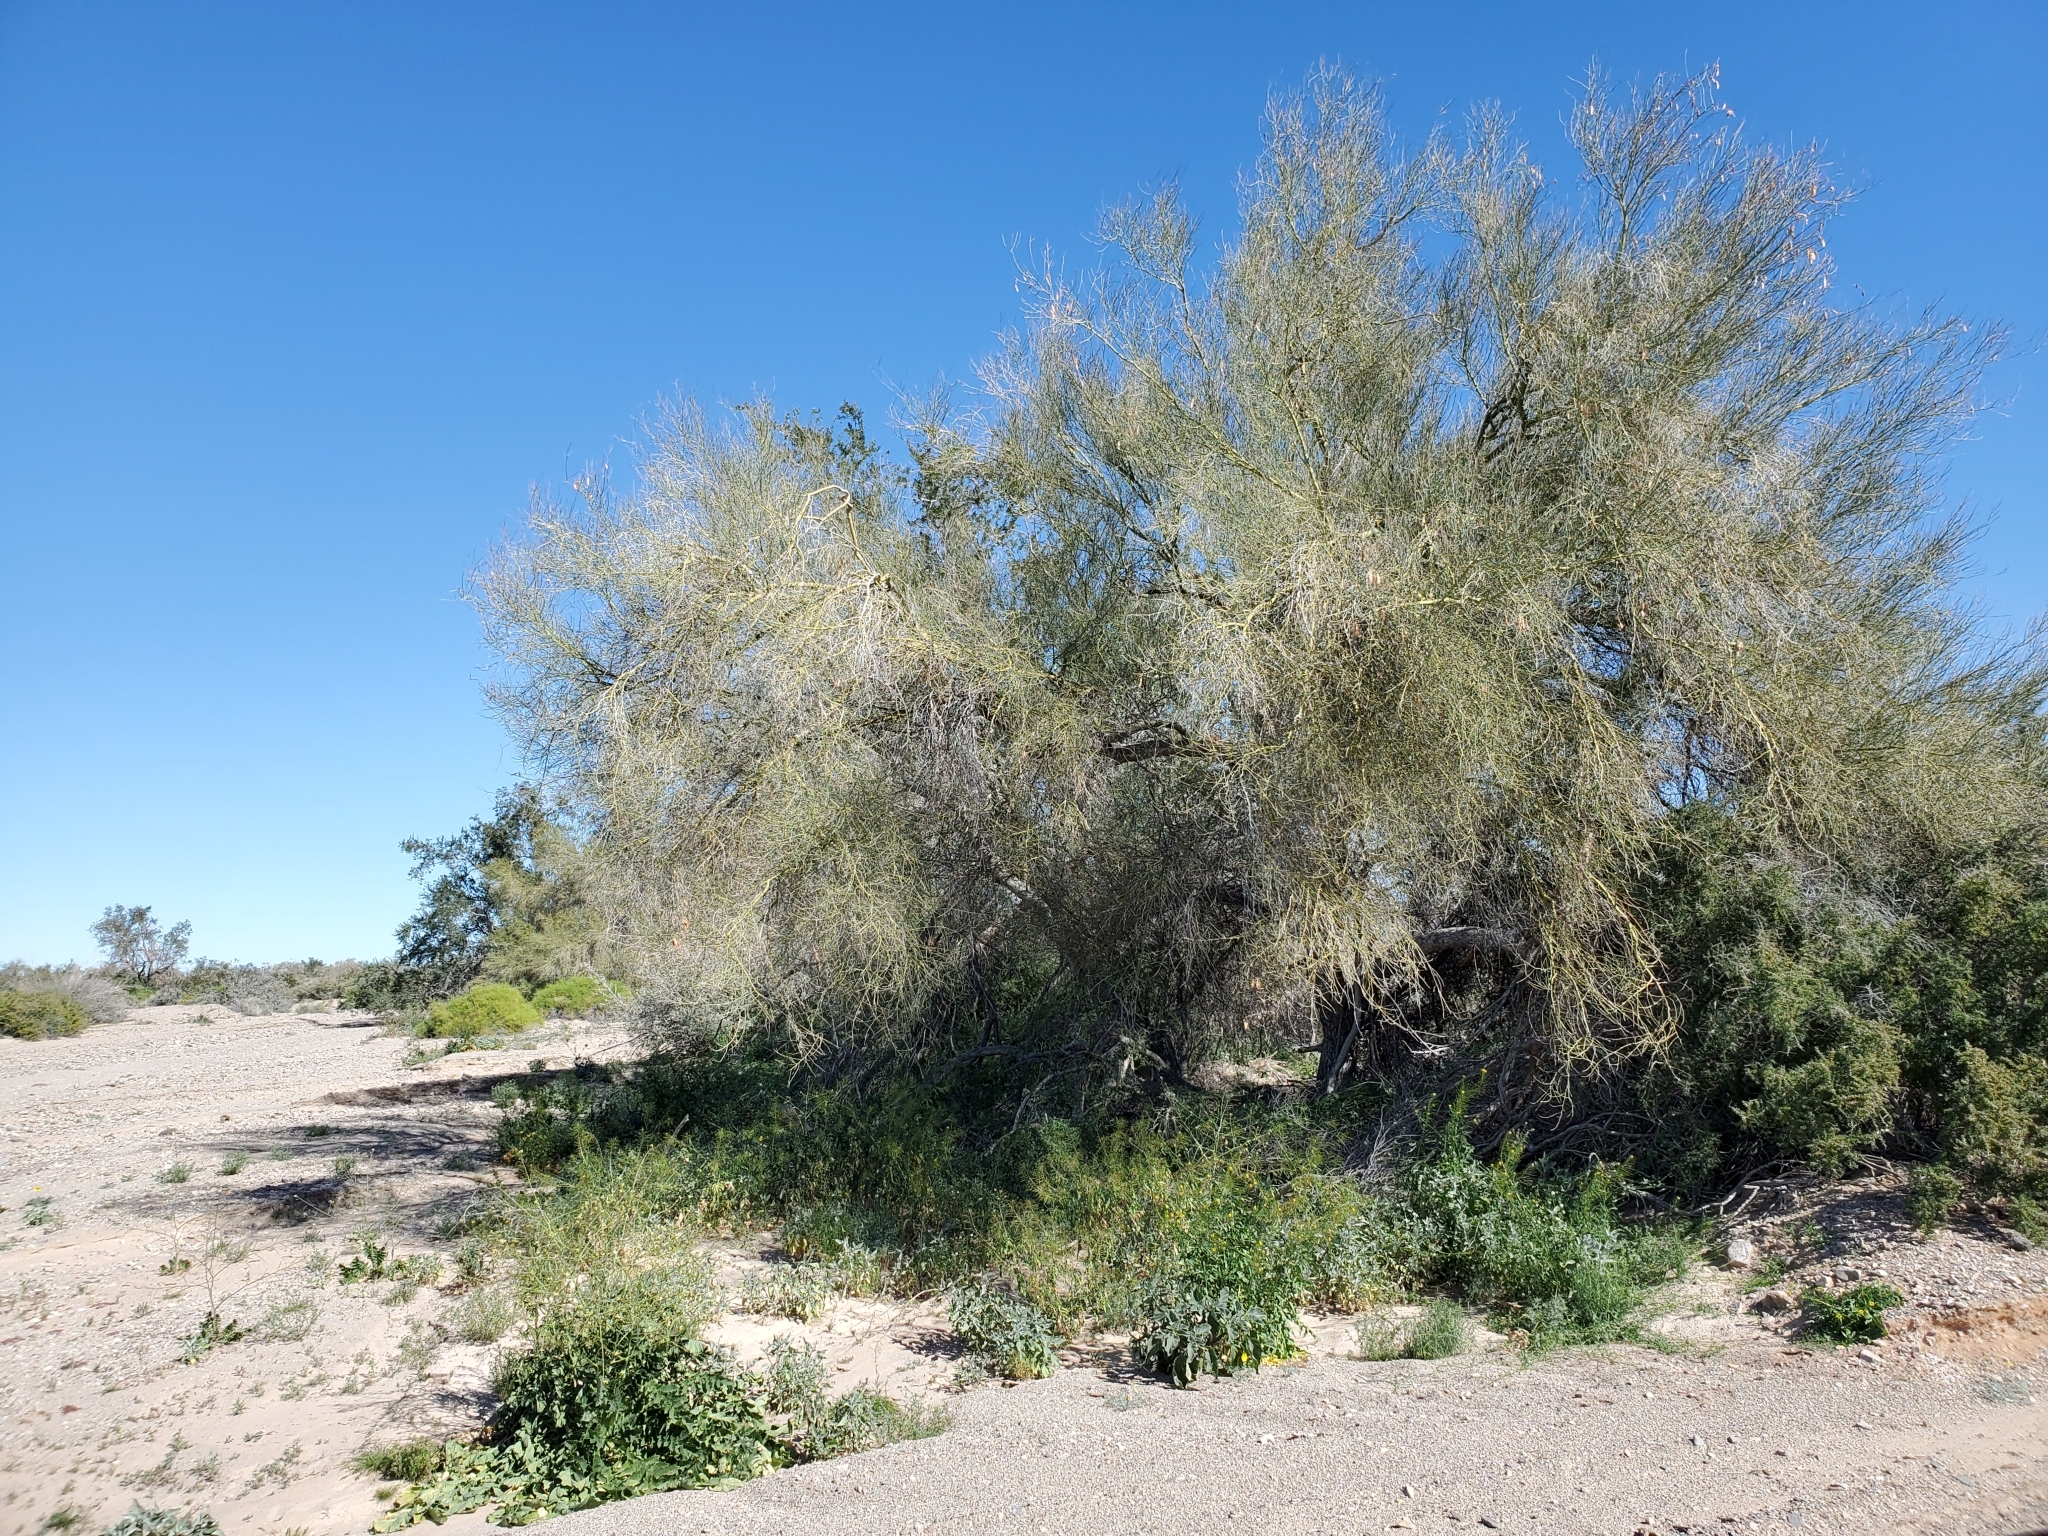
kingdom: Plantae
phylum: Tracheophyta
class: Magnoliopsida
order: Fabales
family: Fabaceae
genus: Parkinsonia
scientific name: Parkinsonia florida
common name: Blue paloverde
